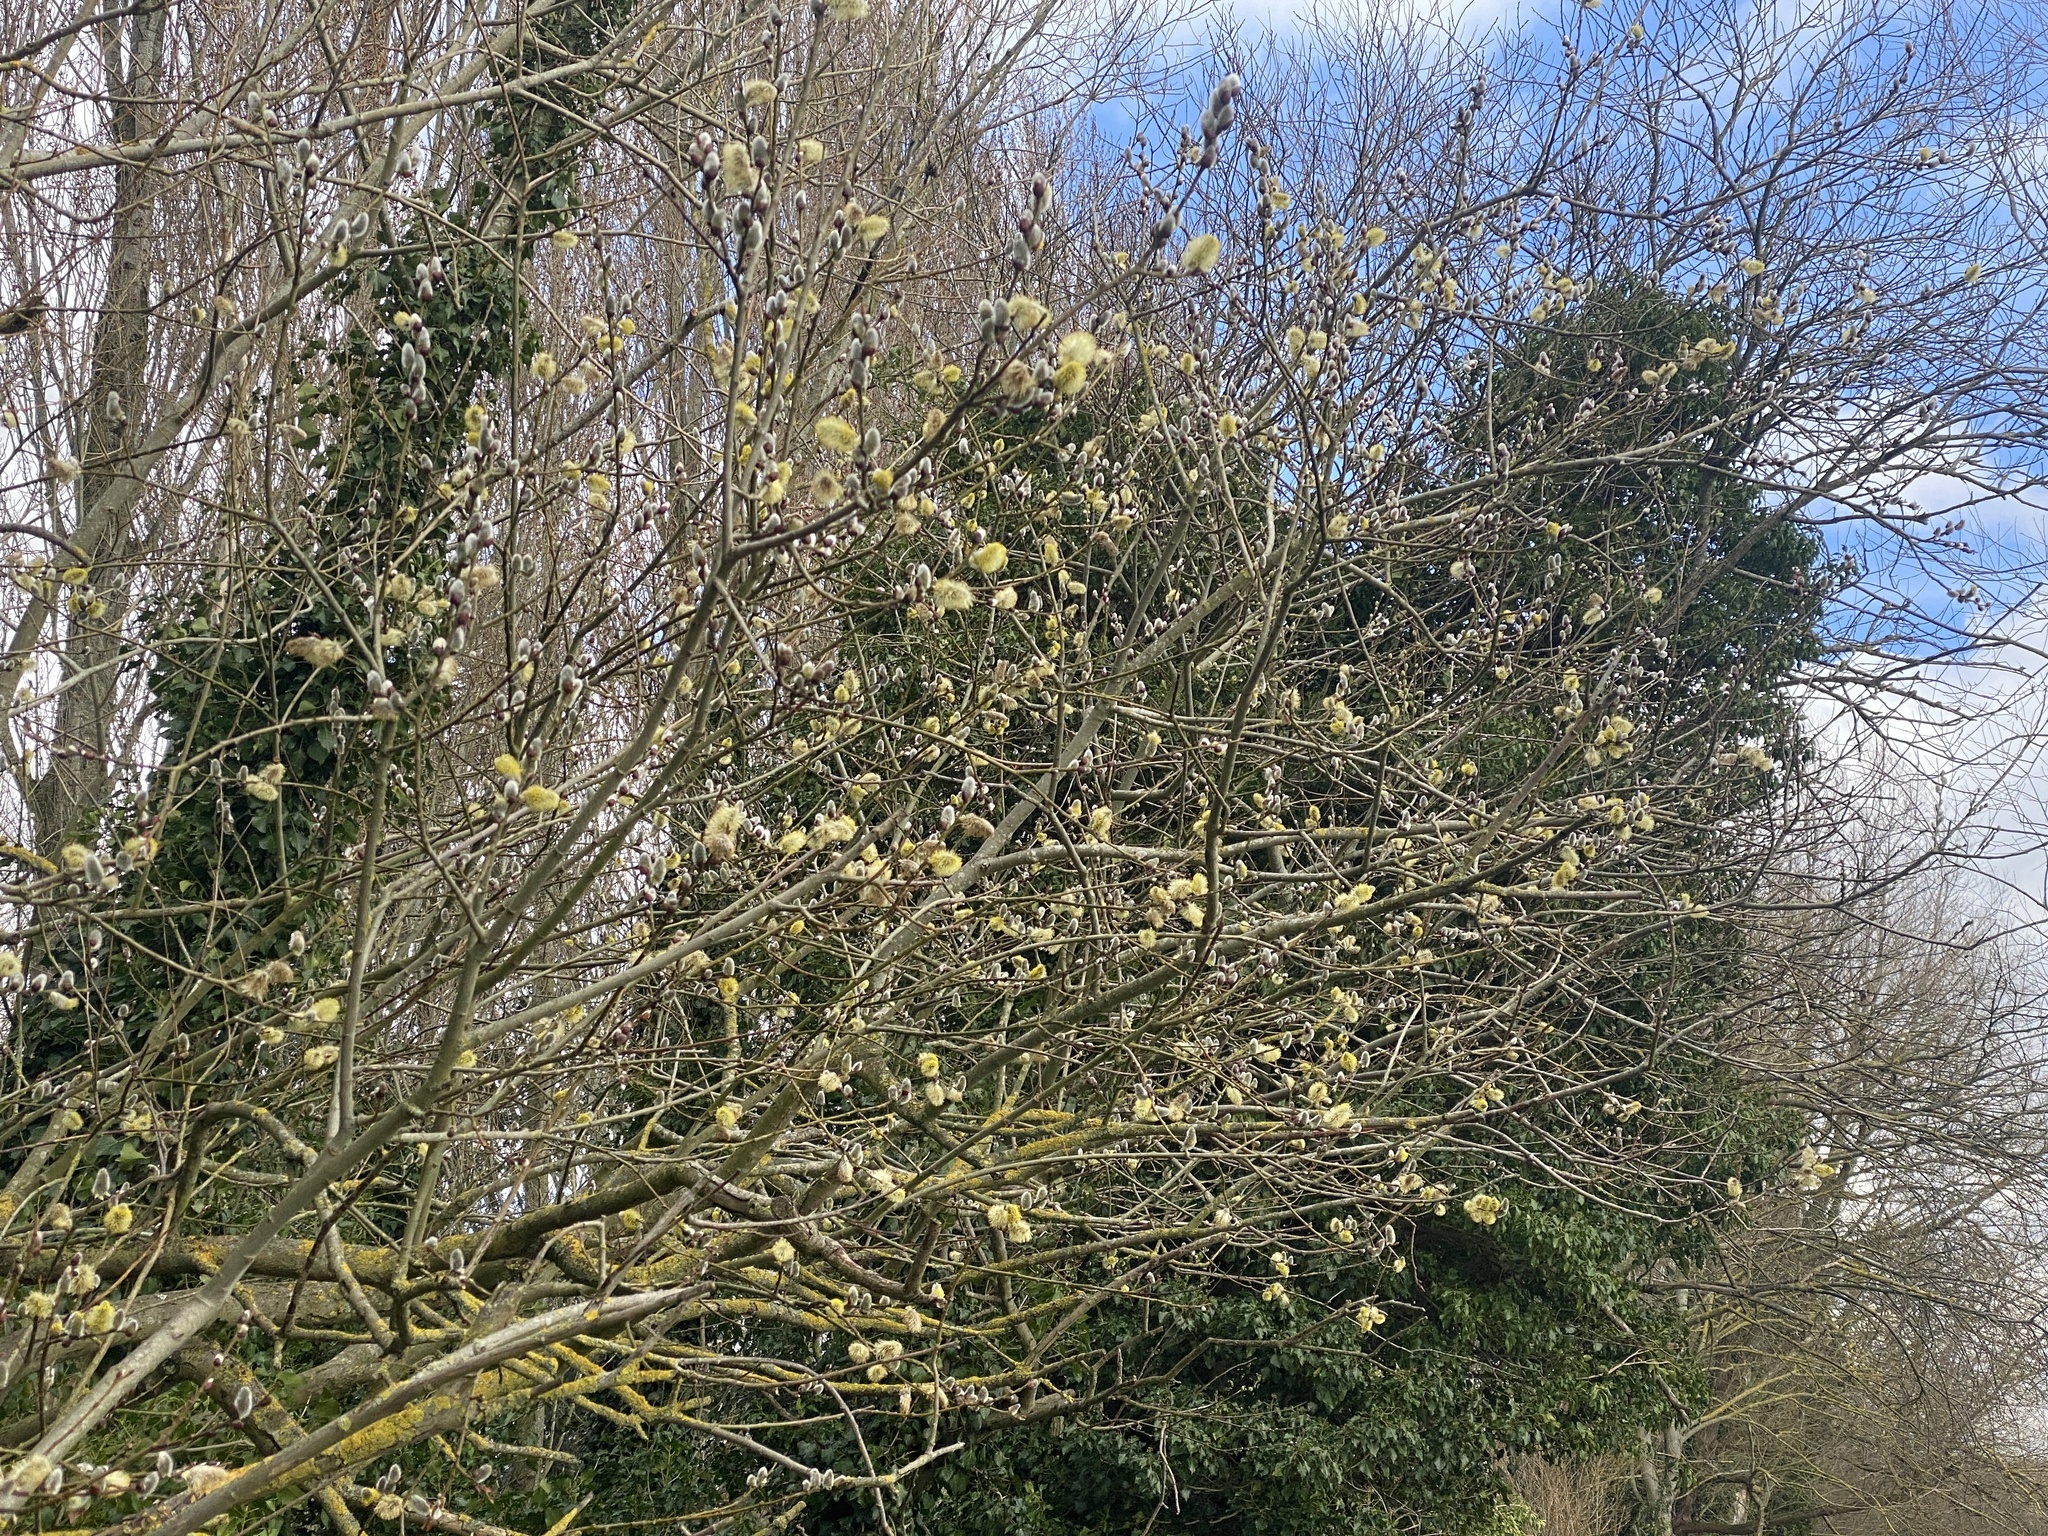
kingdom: Plantae
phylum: Tracheophyta
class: Magnoliopsida
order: Malpighiales
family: Salicaceae
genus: Salix
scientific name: Salix caprea
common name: Goat willow
